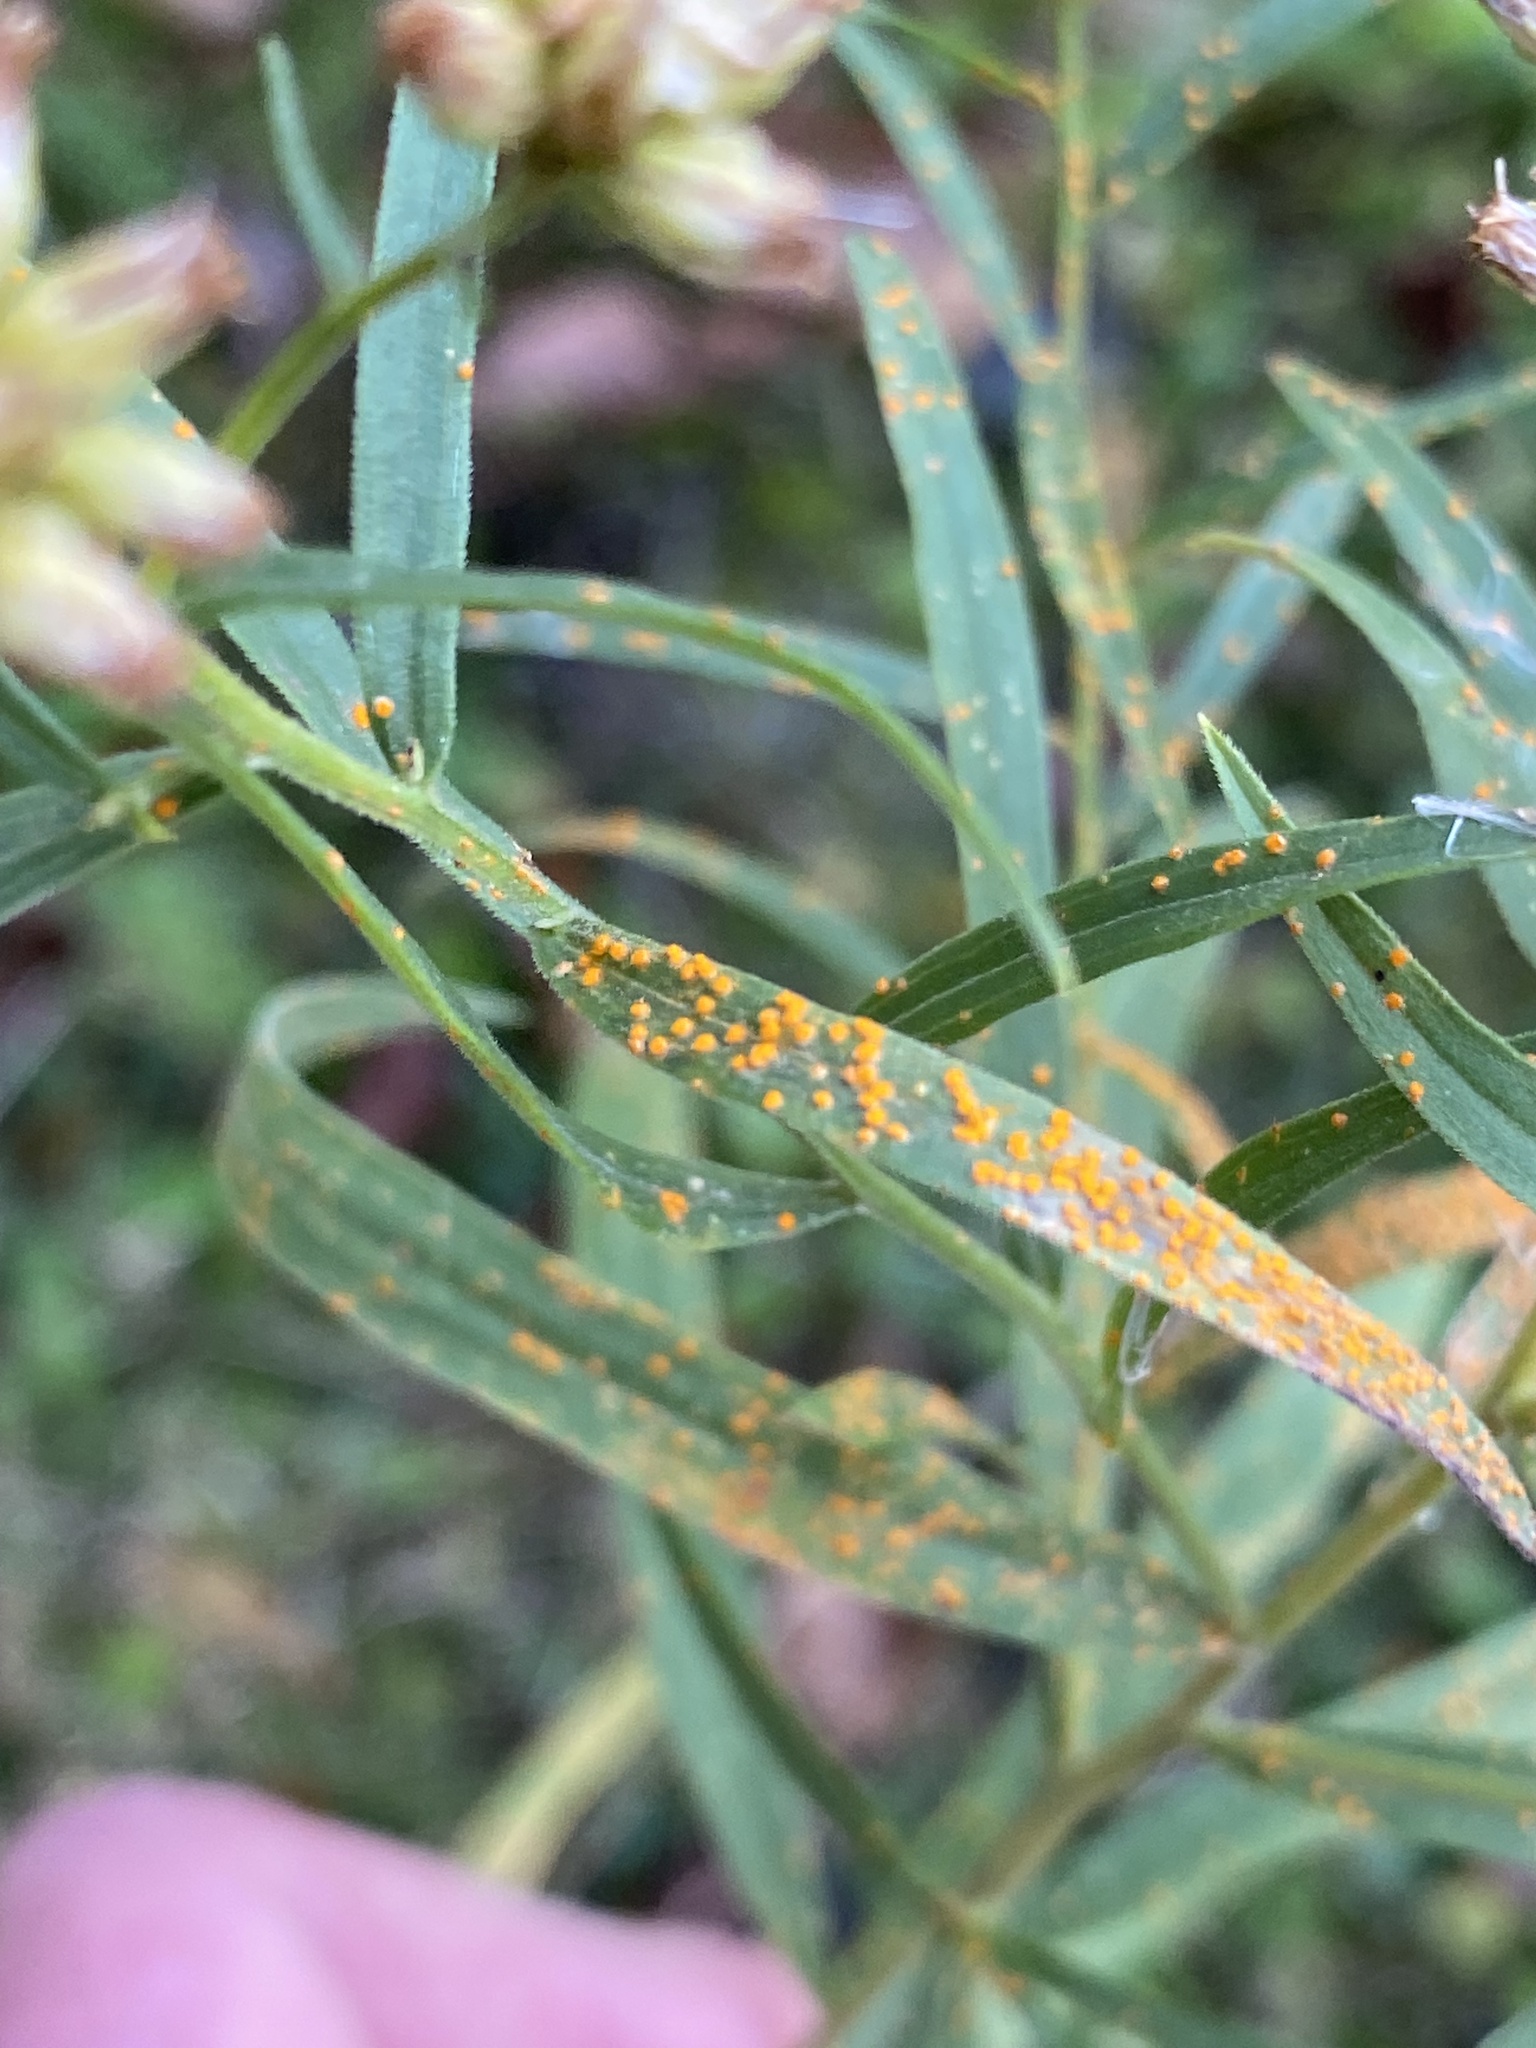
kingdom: Fungi
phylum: Basidiomycota
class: Pucciniomycetes
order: Pucciniales
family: Coleosporiaceae
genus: Coleosporium
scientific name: Coleosporium asterum
